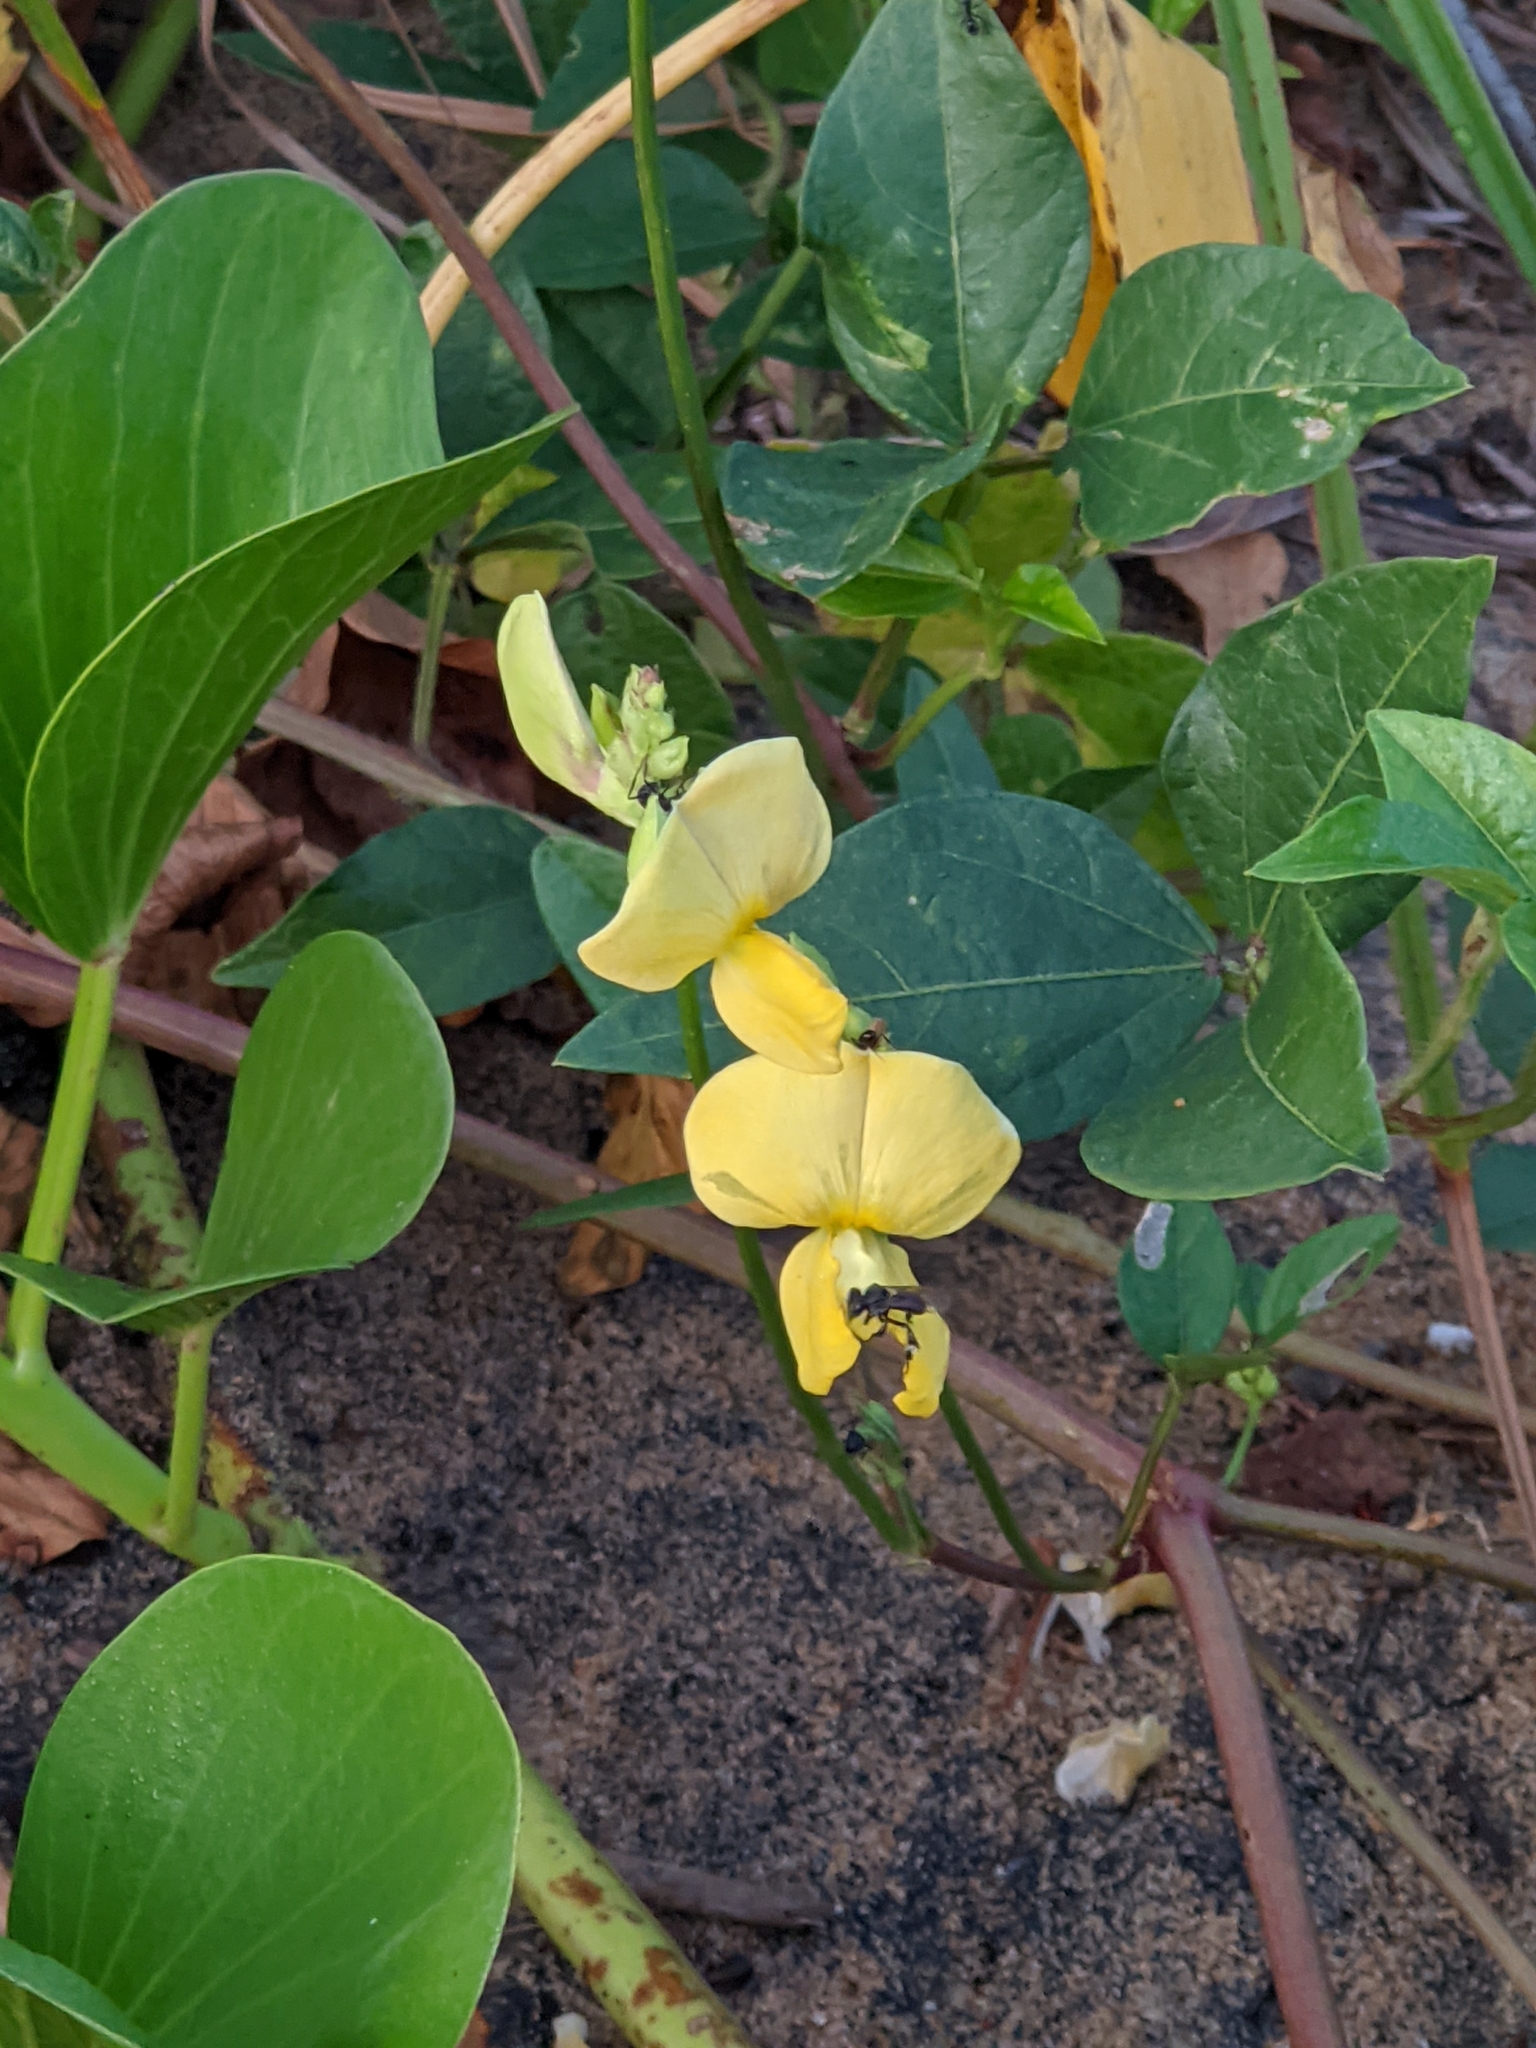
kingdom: Plantae
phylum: Tracheophyta
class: Magnoliopsida
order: Fabales
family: Fabaceae
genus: Vigna
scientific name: Vigna luteola
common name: Hairypod cowpea
